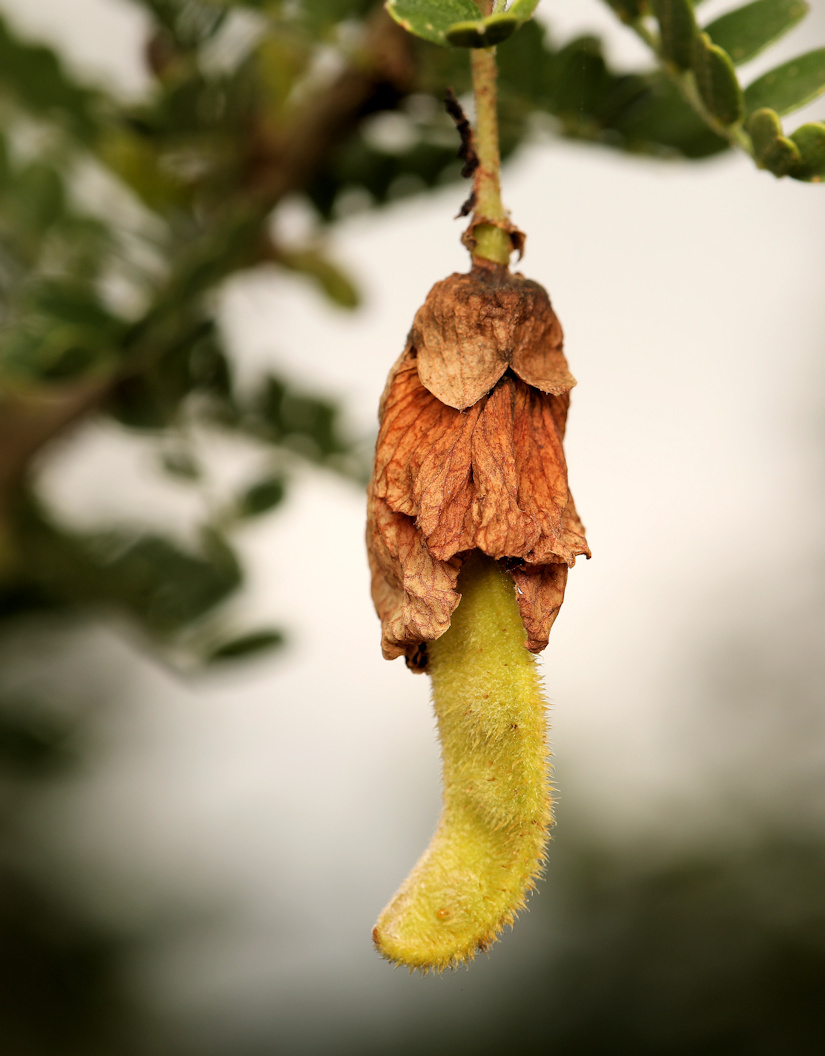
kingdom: Plantae
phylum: Tracheophyta
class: Magnoliopsida
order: Fabales
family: Fabaceae
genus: Ormocarpum
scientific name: Ormocarpum kirkii
